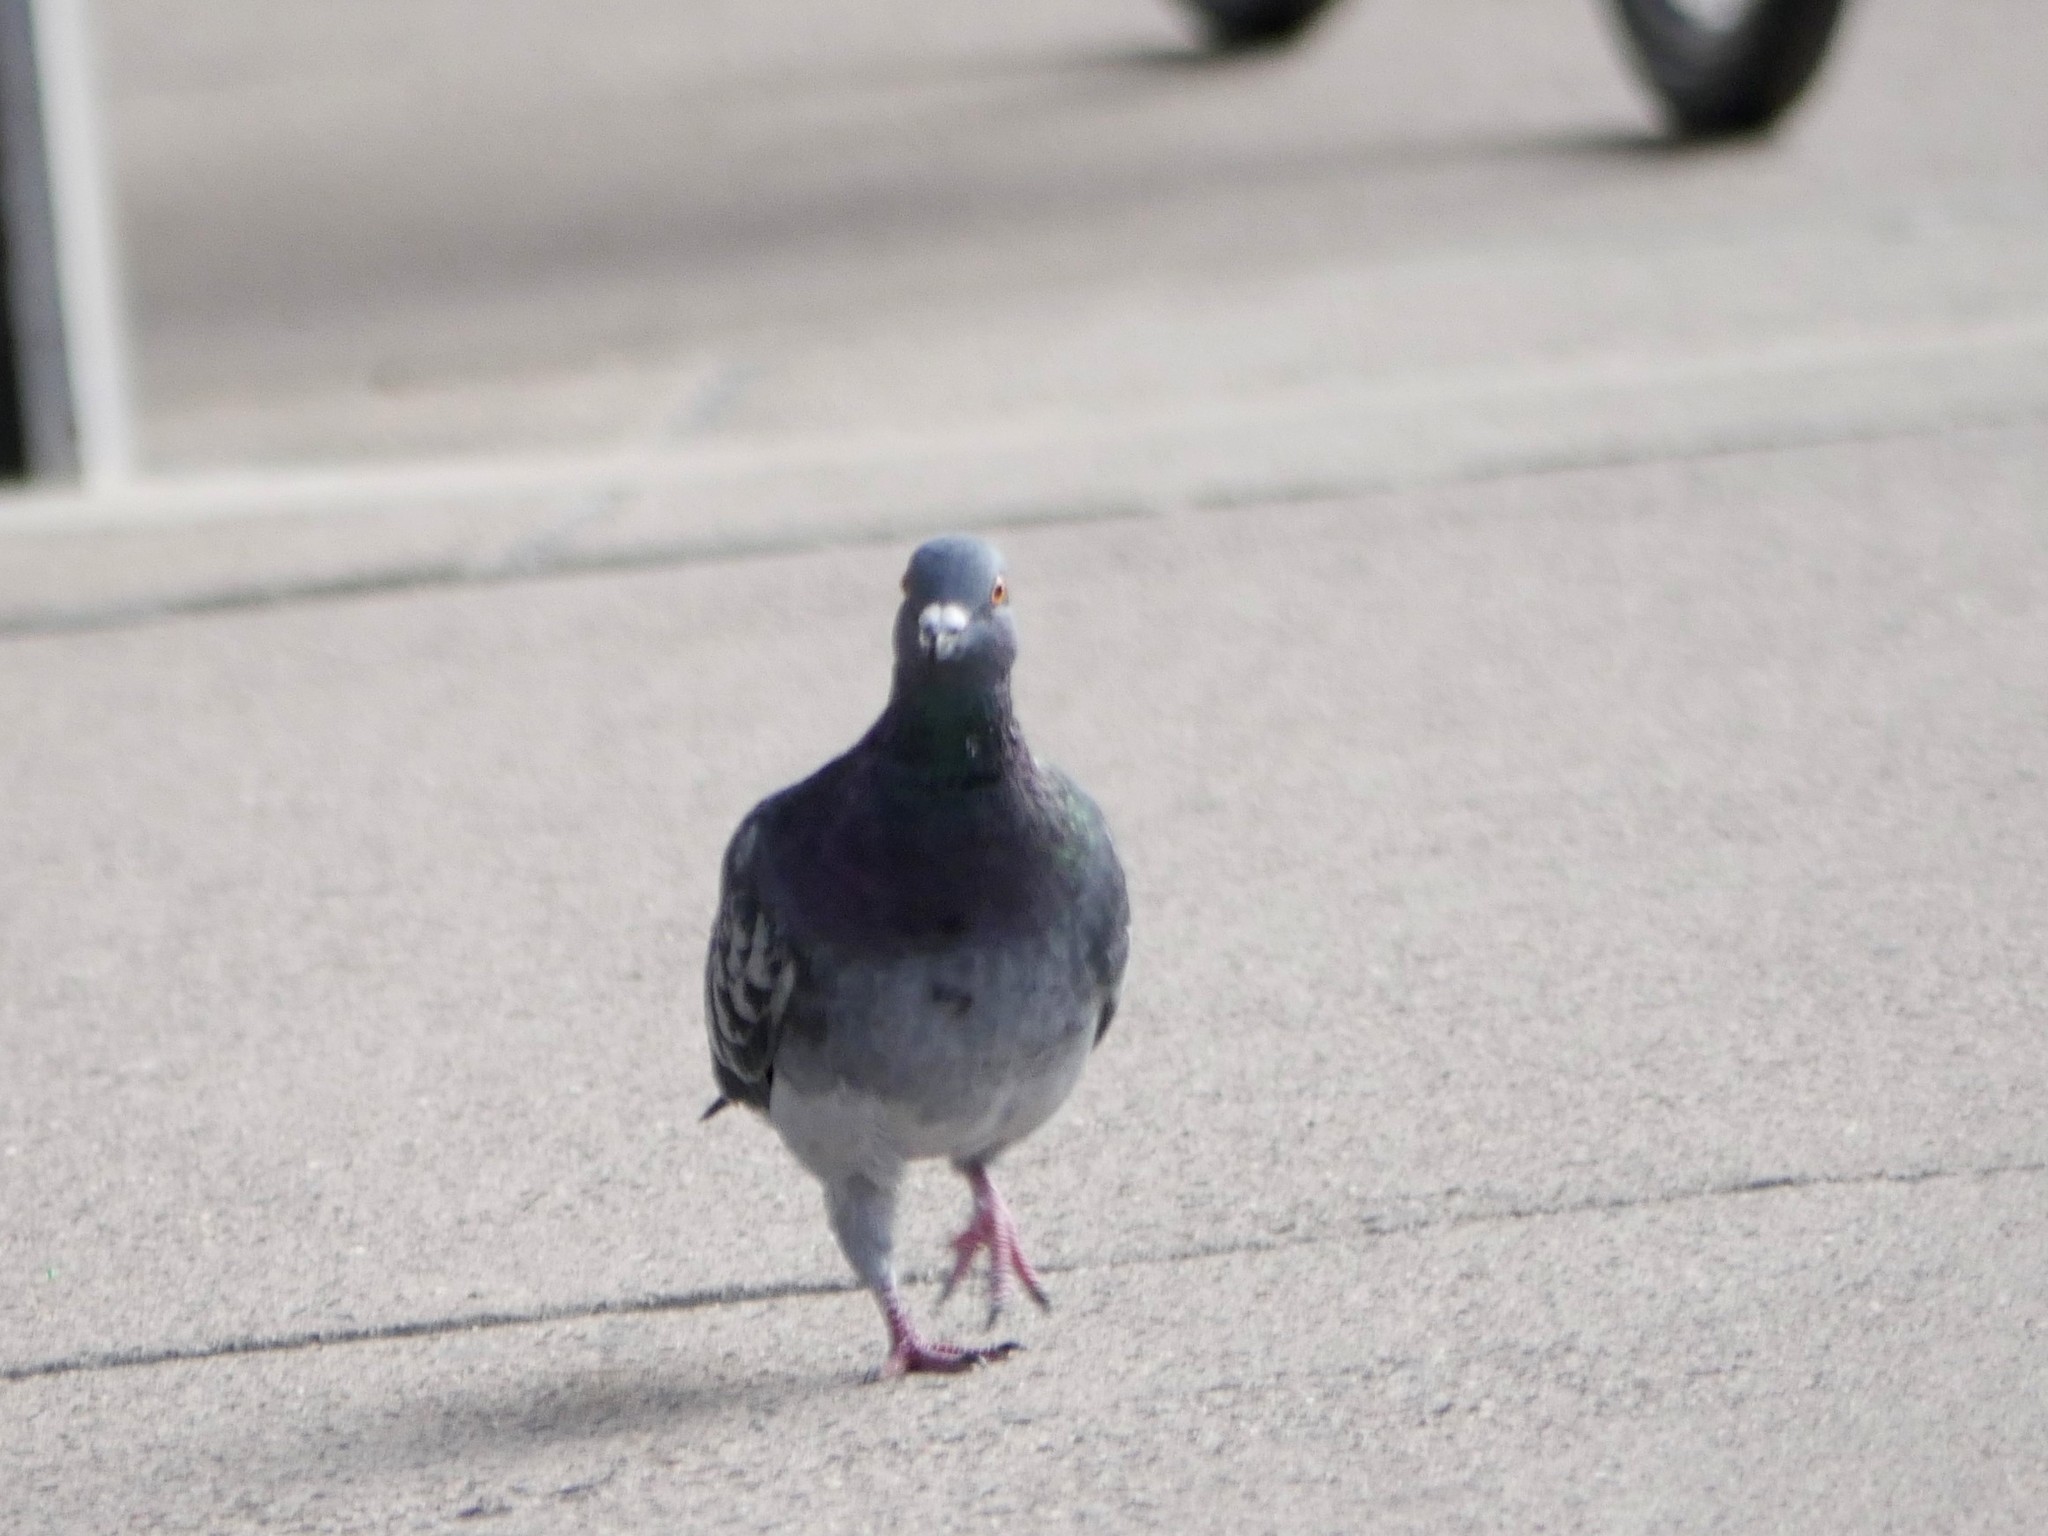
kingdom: Animalia
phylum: Chordata
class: Aves
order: Columbiformes
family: Columbidae
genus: Columba
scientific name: Columba livia
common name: Rock pigeon
